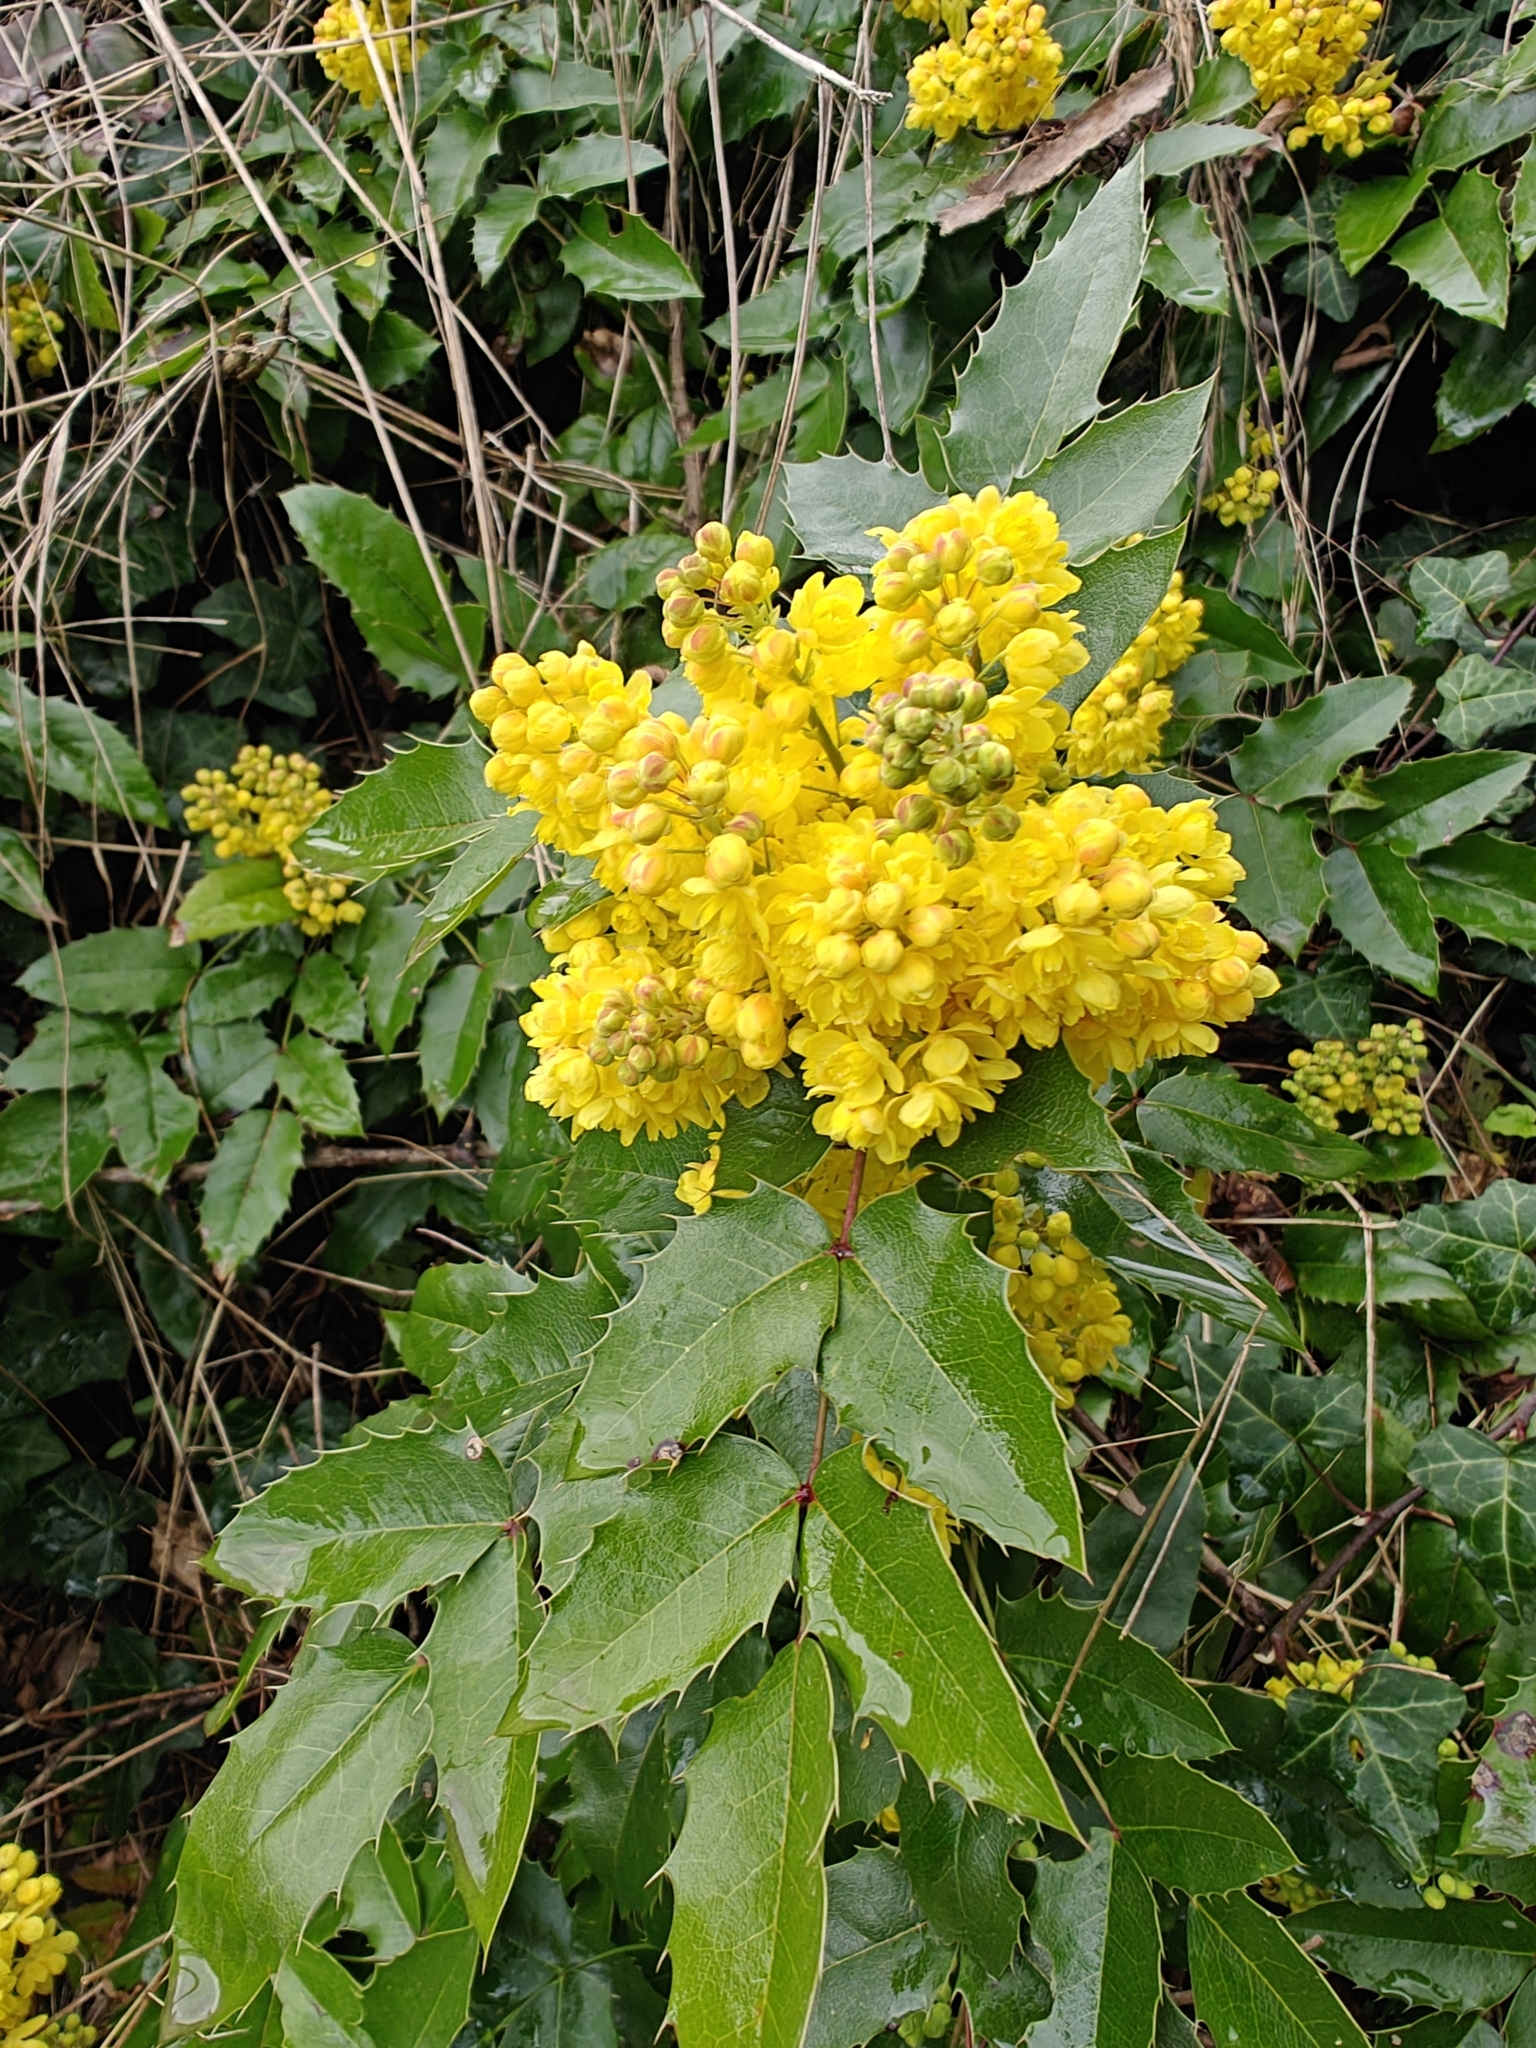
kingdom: Plantae
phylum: Tracheophyta
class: Magnoliopsida
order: Ranunculales
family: Berberidaceae
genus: Mahonia
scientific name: Mahonia aquifolium
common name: Oregon-grape
